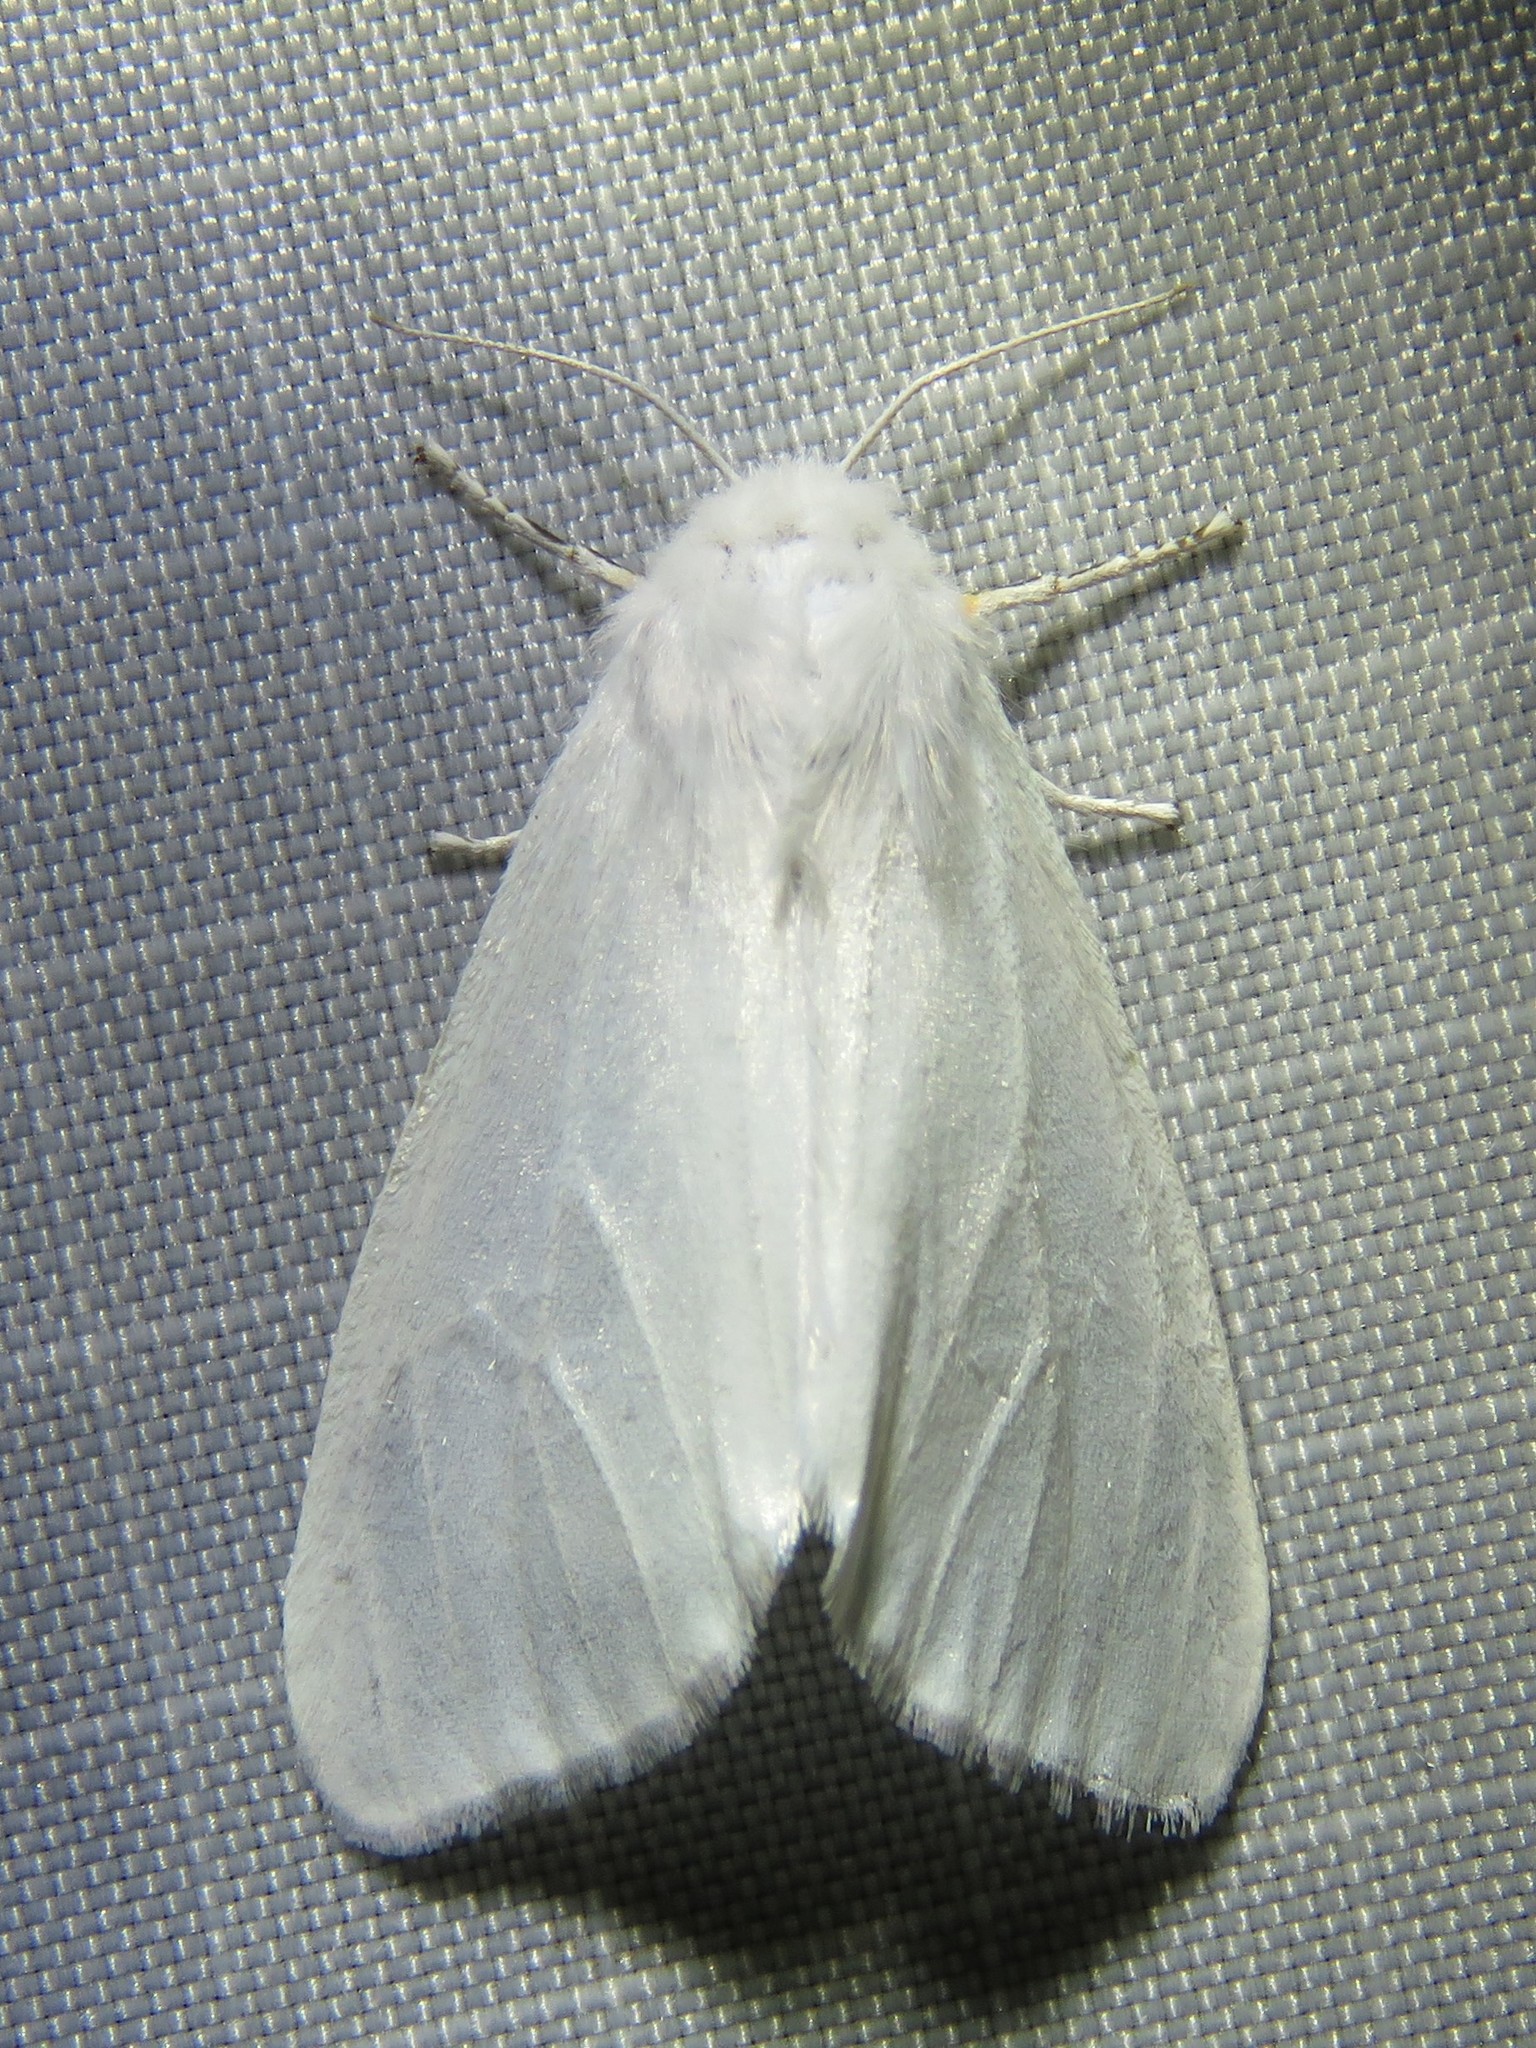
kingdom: Animalia
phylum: Arthropoda
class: Insecta
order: Lepidoptera
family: Erebidae
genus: Hyphantria
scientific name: Hyphantria cunea
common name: American white moth
